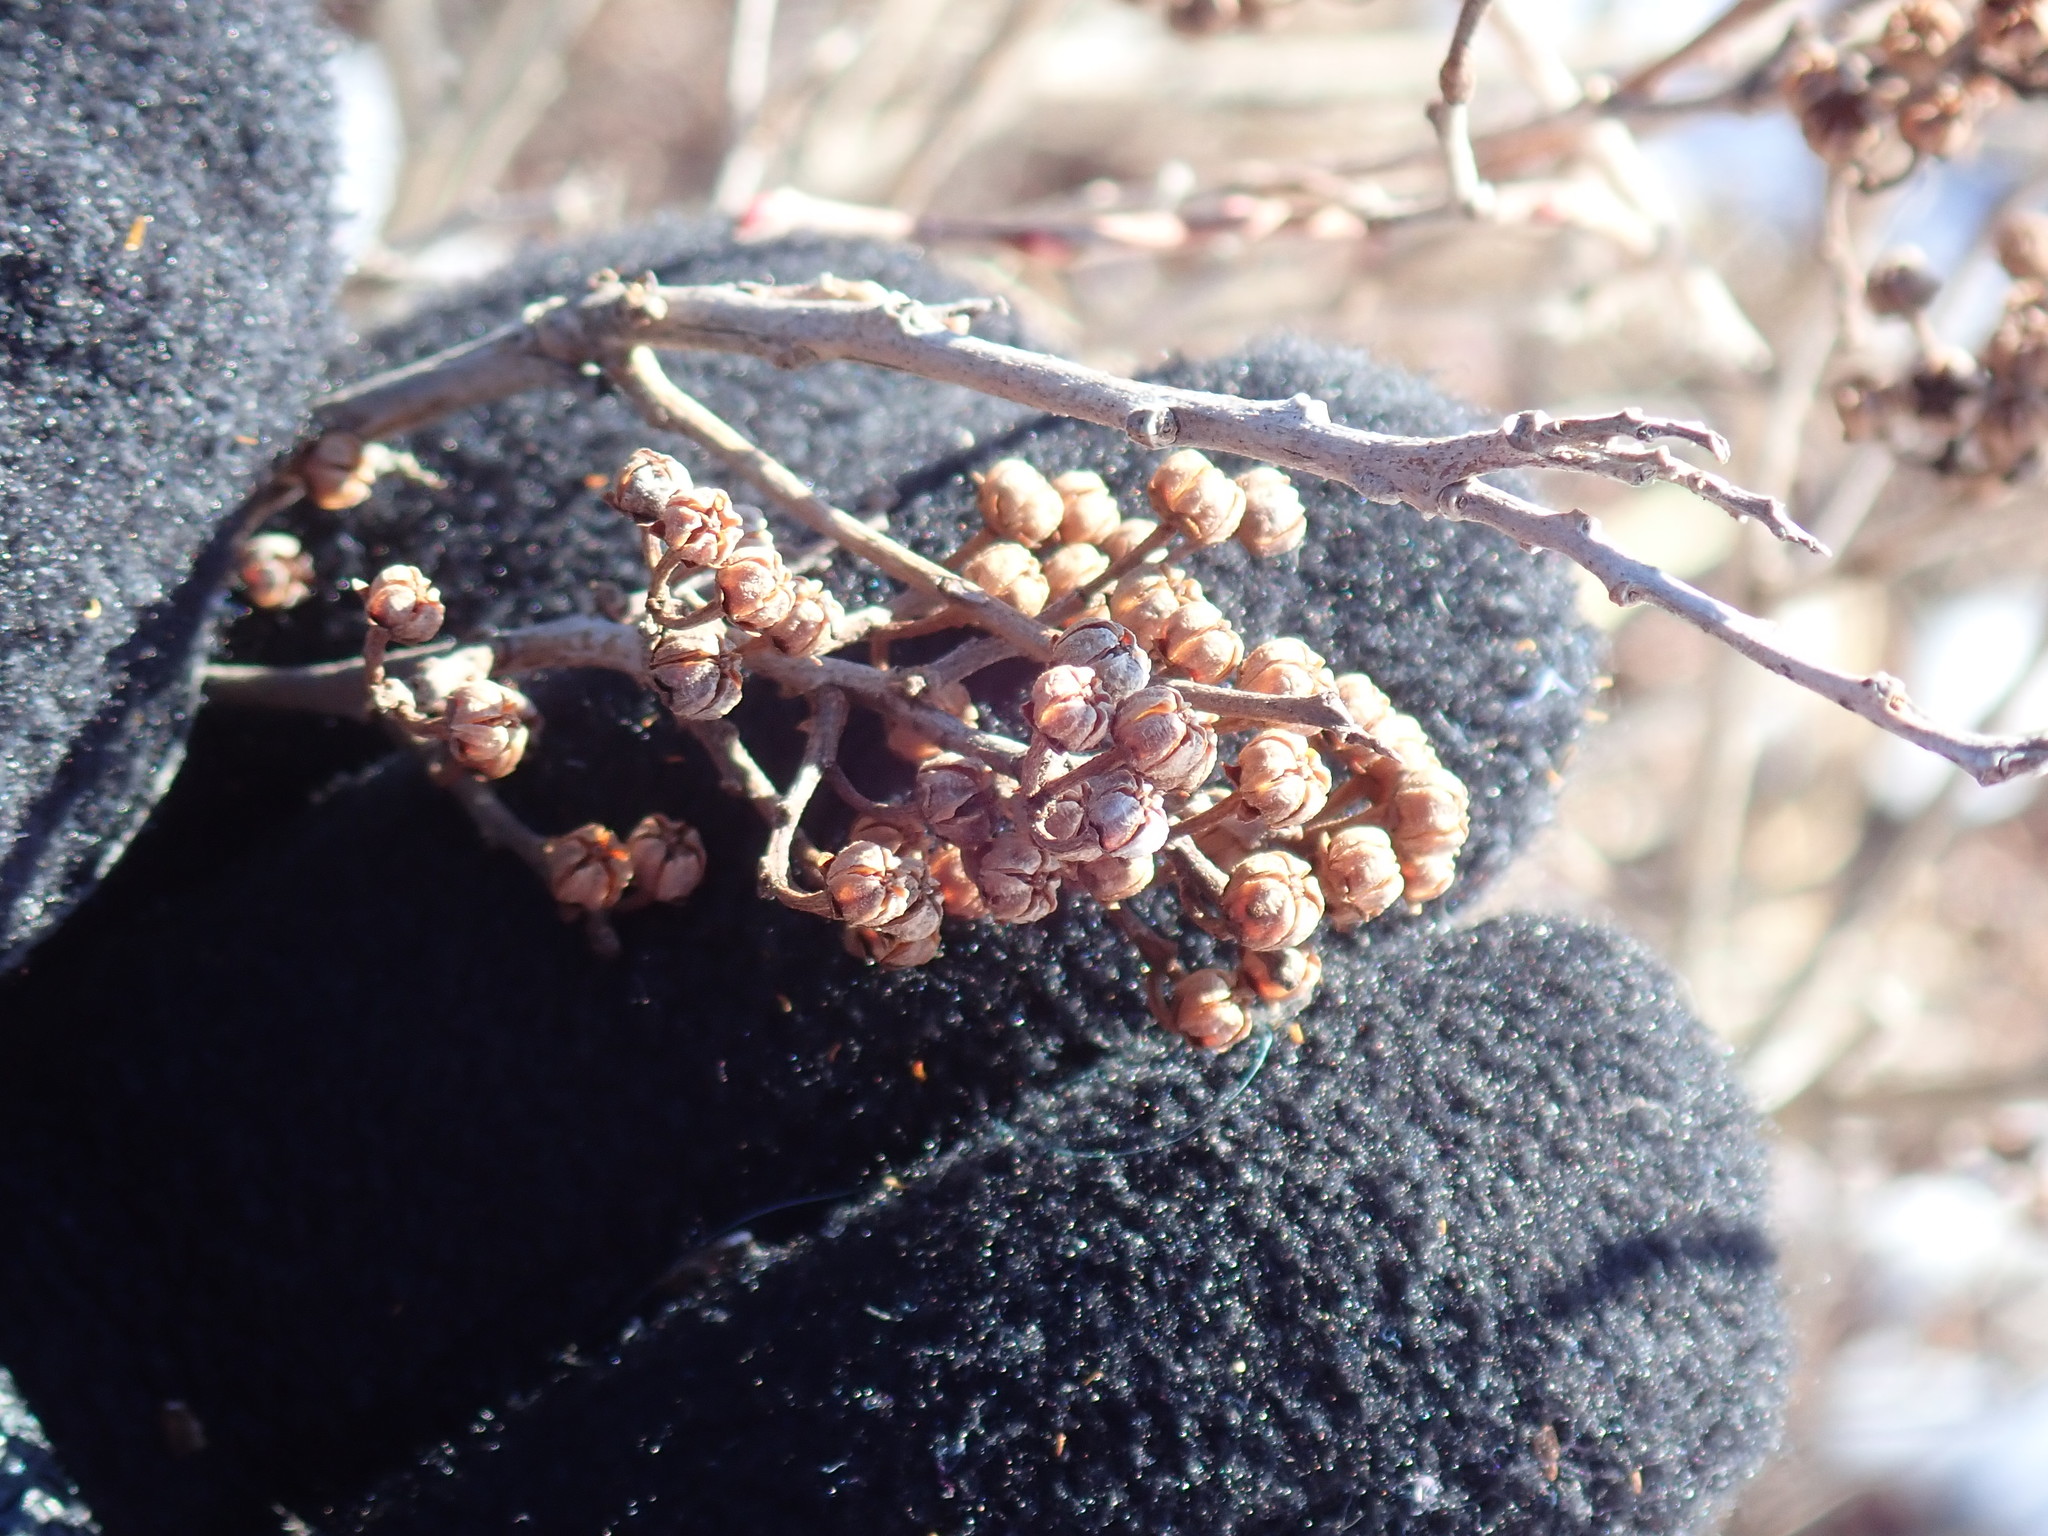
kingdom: Plantae
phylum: Tracheophyta
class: Magnoliopsida
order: Ericales
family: Ericaceae
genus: Lyonia
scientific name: Lyonia ligustrina
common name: Maleberry
